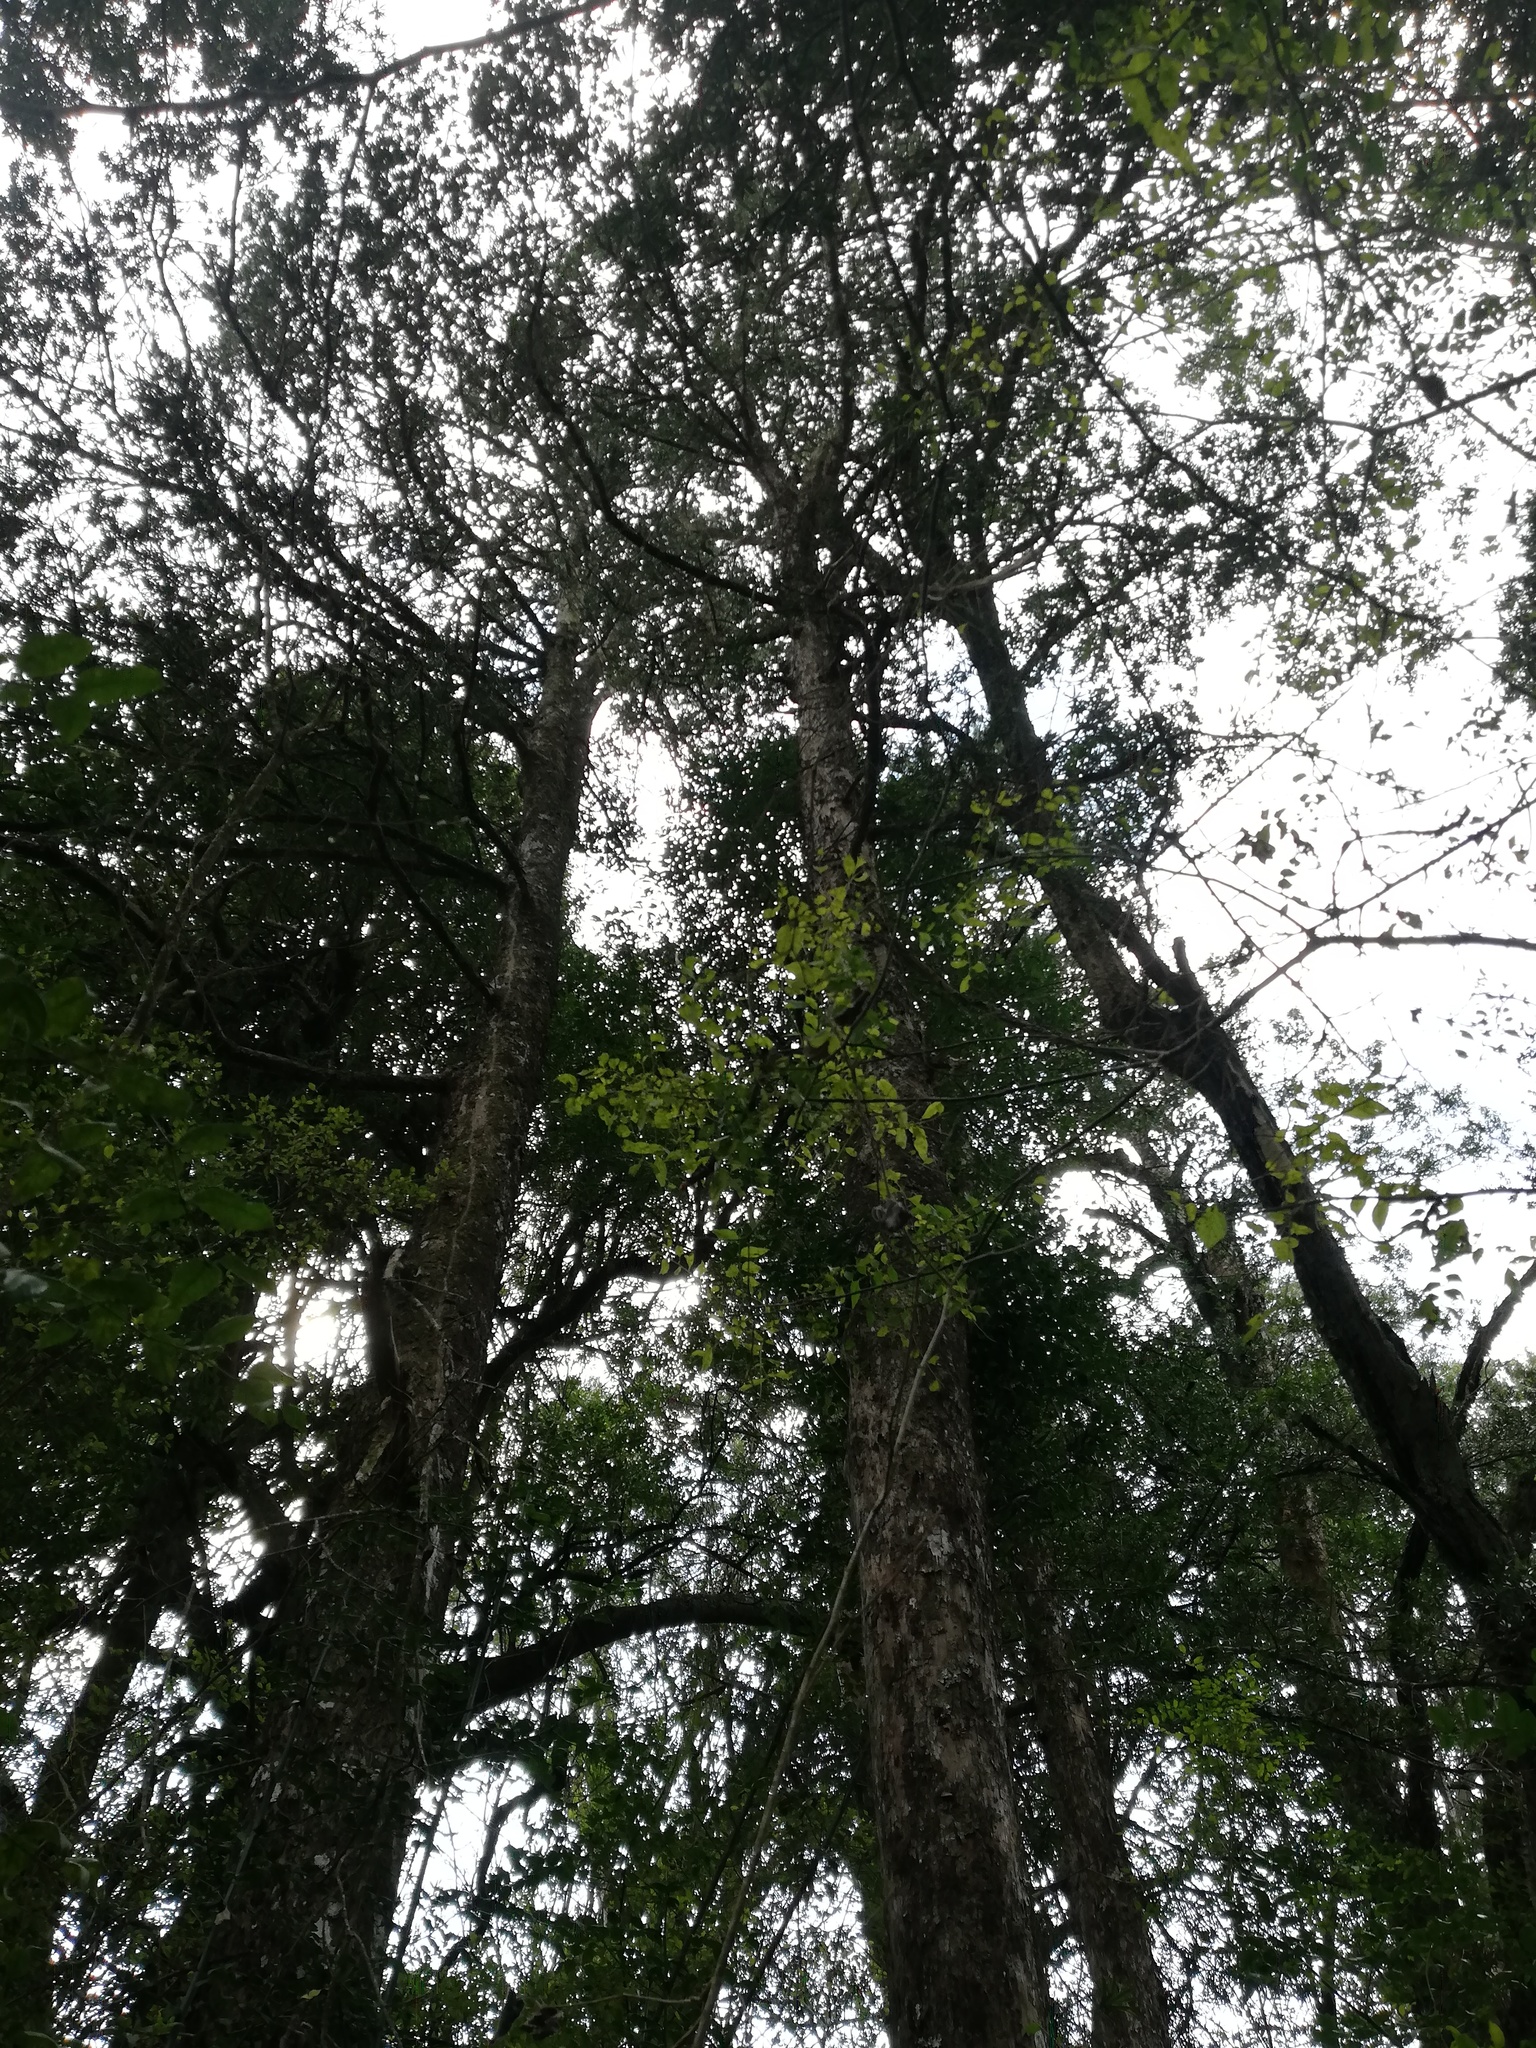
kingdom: Plantae
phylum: Tracheophyta
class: Pinopsida
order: Pinales
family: Podocarpaceae
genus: Podocarpus
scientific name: Podocarpus latifolius
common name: True yellowwood
